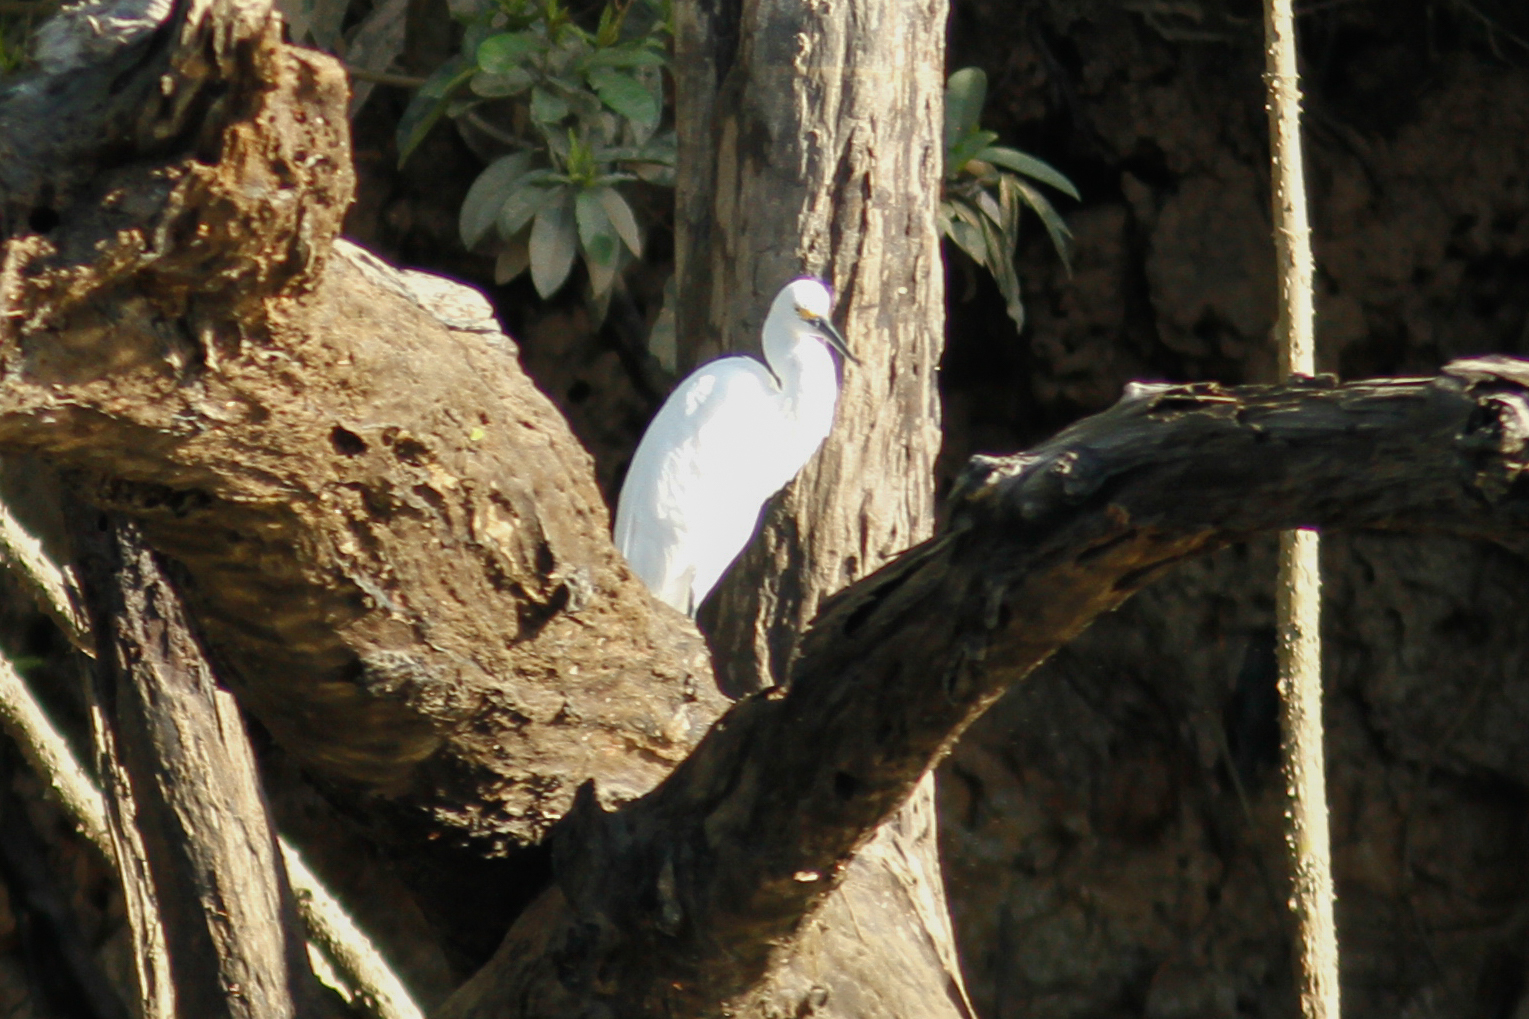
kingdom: Animalia
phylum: Chordata
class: Aves
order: Pelecaniformes
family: Ardeidae
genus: Egretta
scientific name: Egretta thula
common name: Snowy egret
